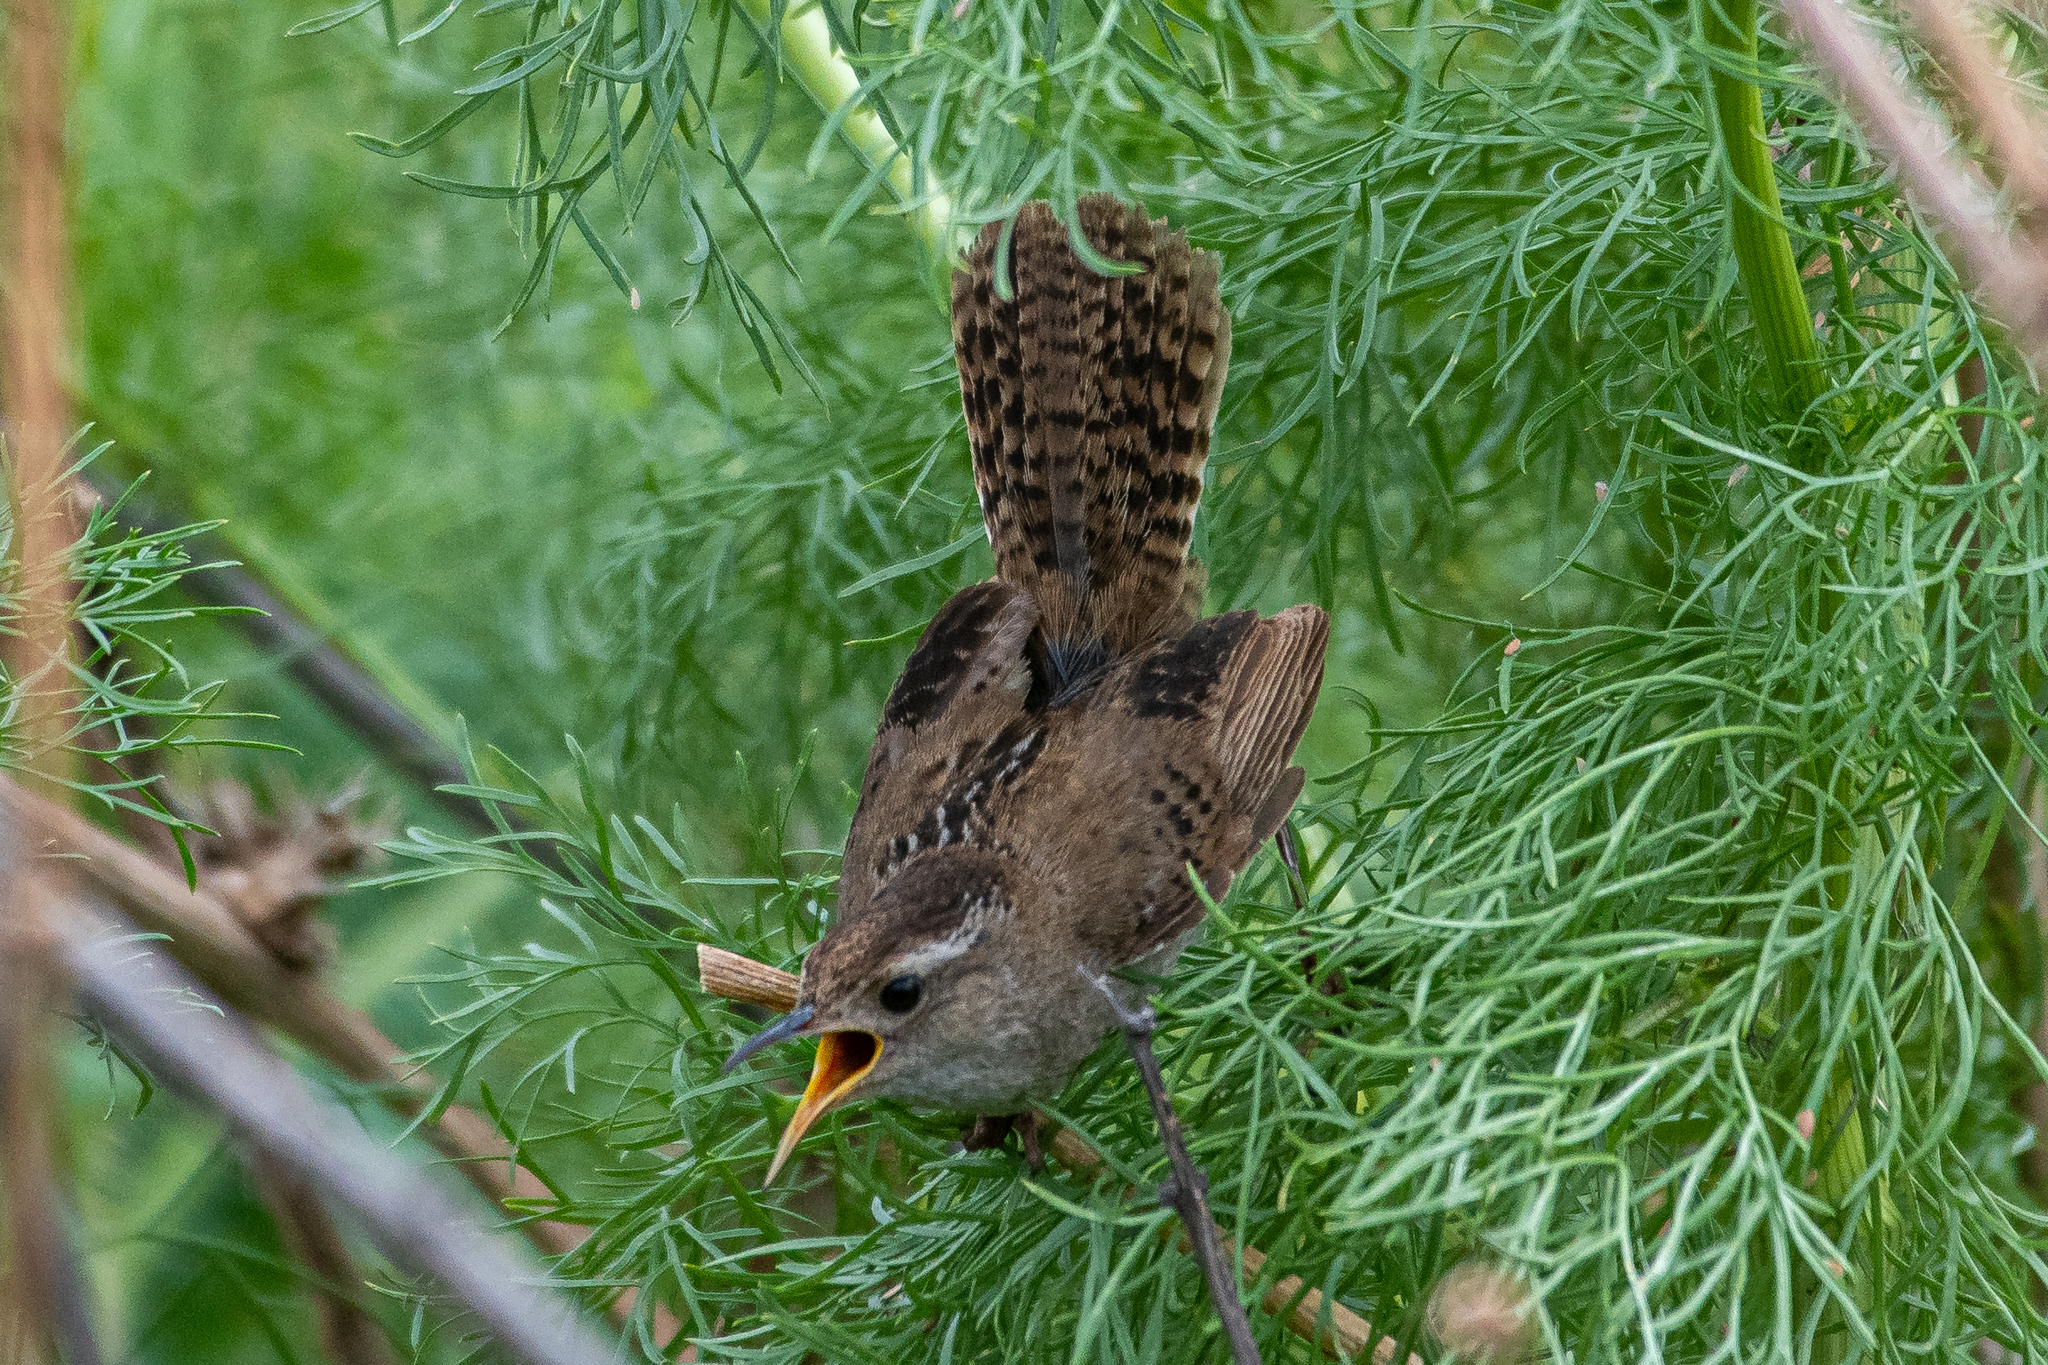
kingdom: Animalia
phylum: Chordata
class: Aves
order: Passeriformes
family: Troglodytidae
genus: Cistothorus
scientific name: Cistothorus palustris
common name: Marsh wren
